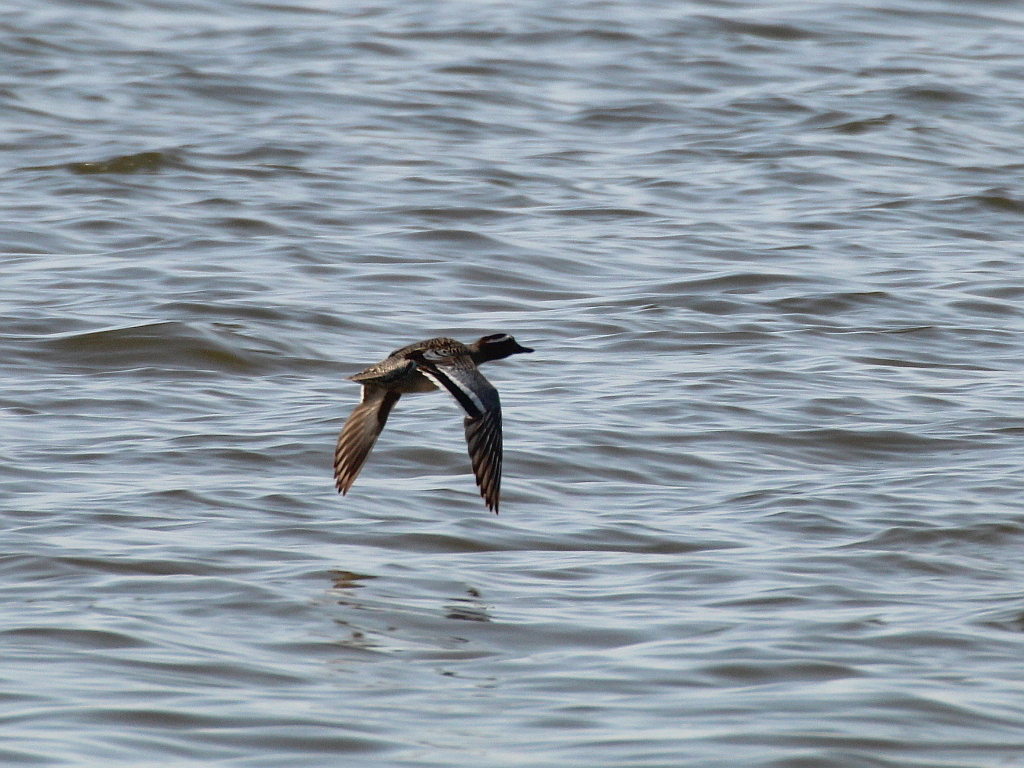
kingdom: Animalia
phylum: Chordata
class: Aves
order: Anseriformes
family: Anatidae
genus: Spatula
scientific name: Spatula querquedula
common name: Garganey
